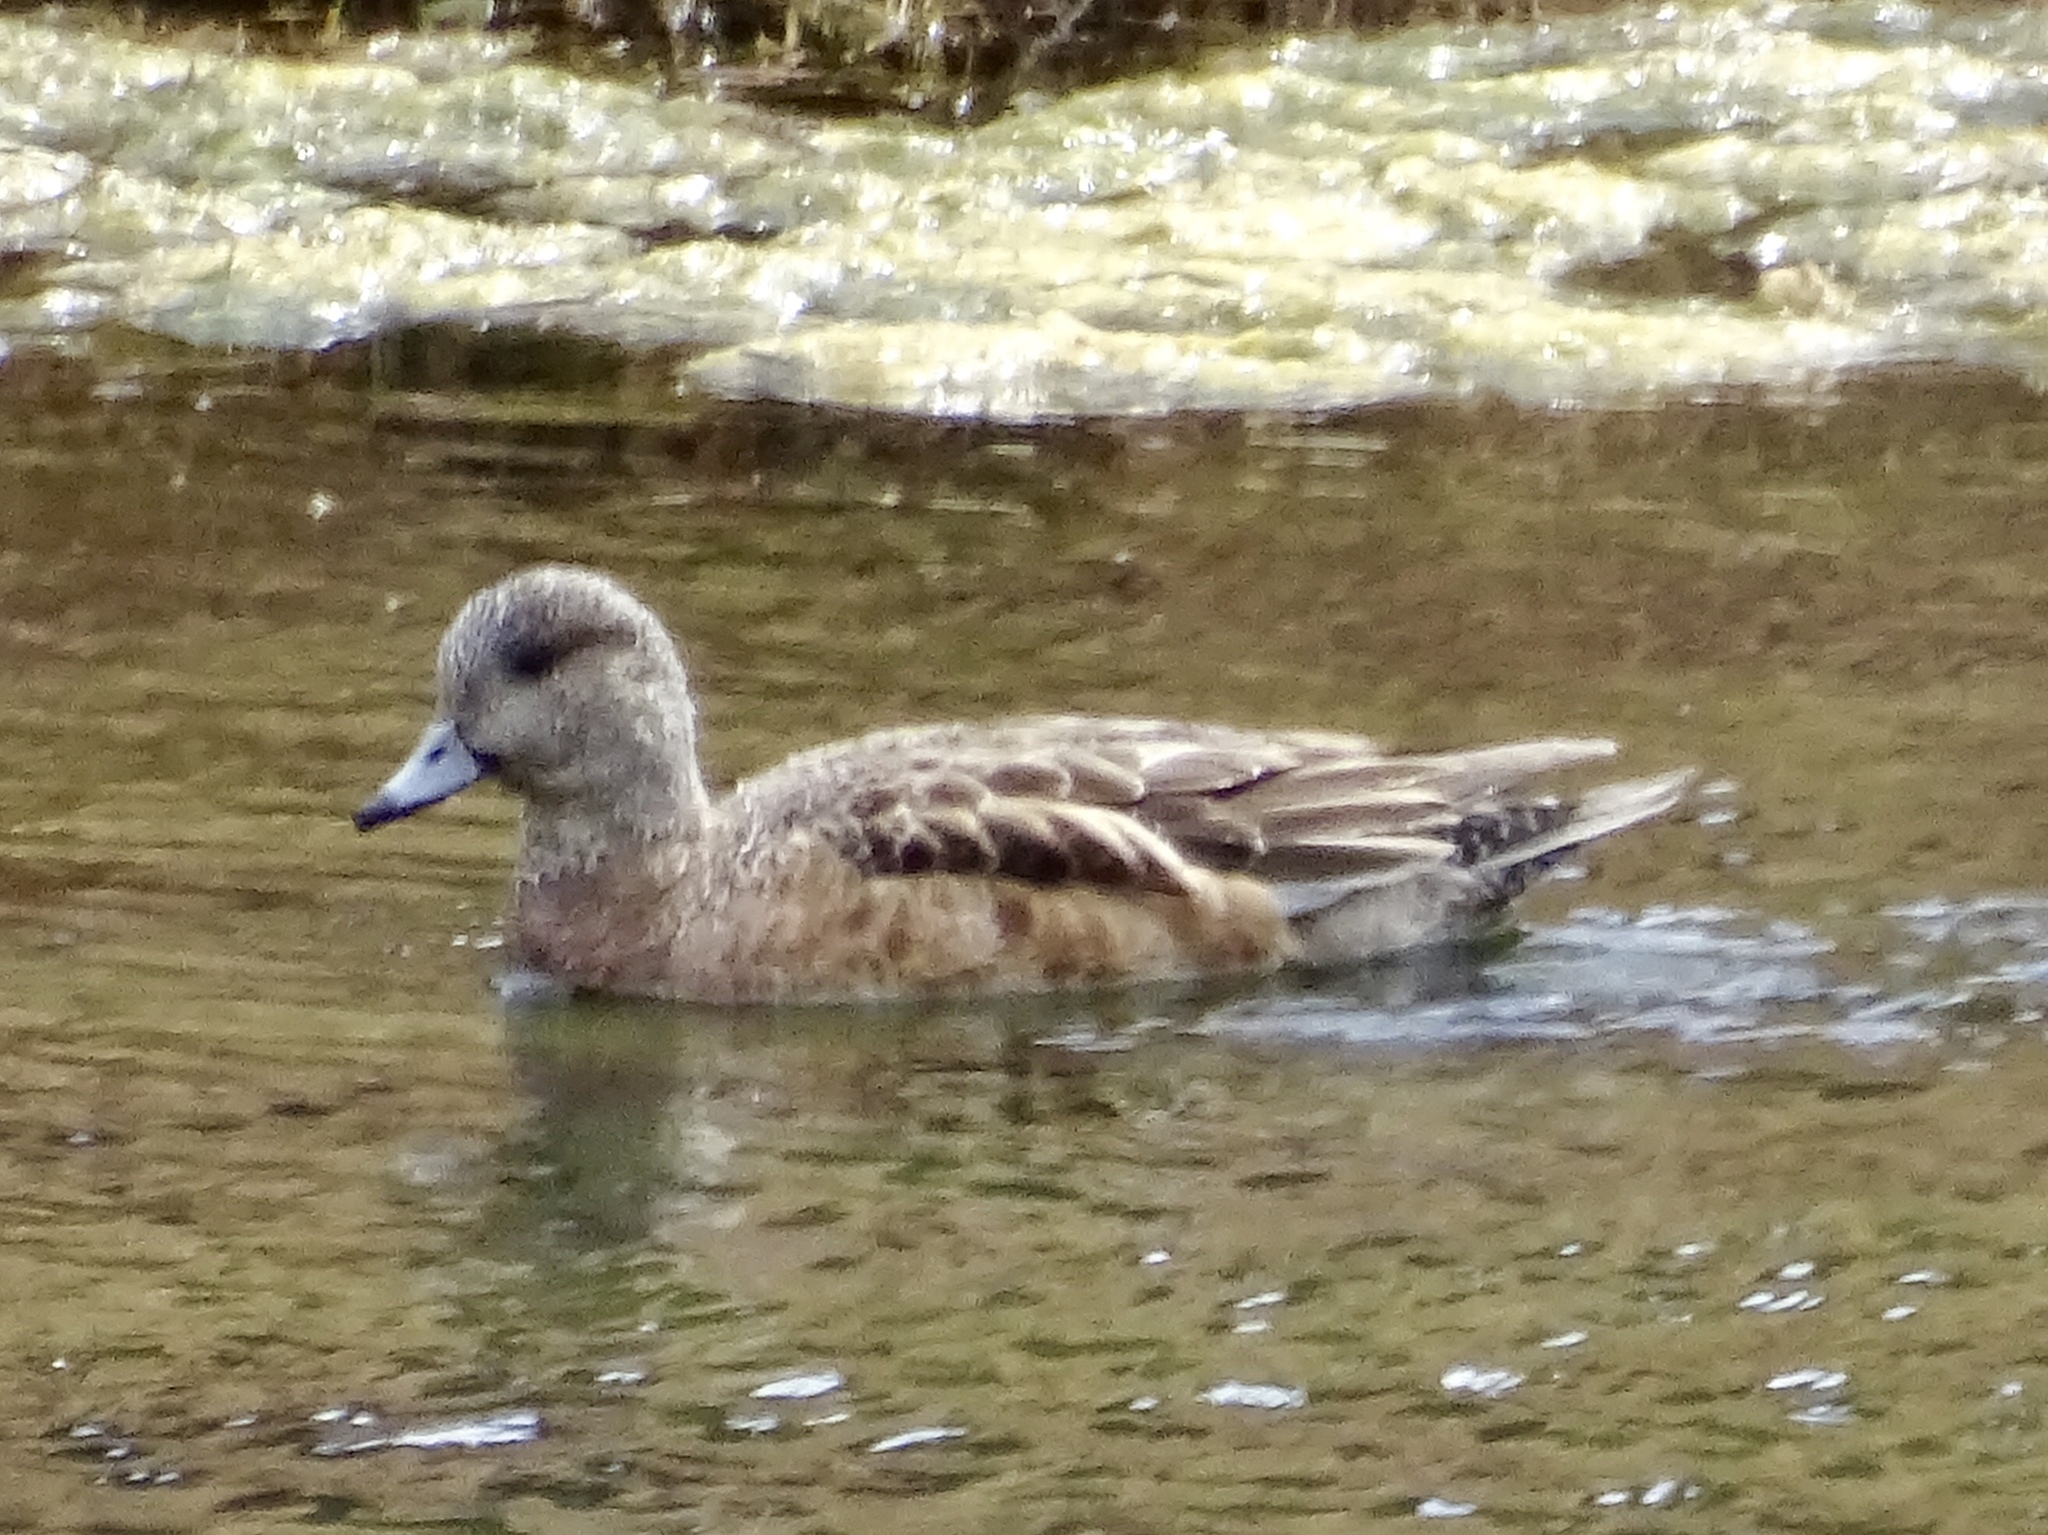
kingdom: Animalia
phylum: Chordata
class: Aves
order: Anseriformes
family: Anatidae
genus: Mareca
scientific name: Mareca americana
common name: American wigeon
